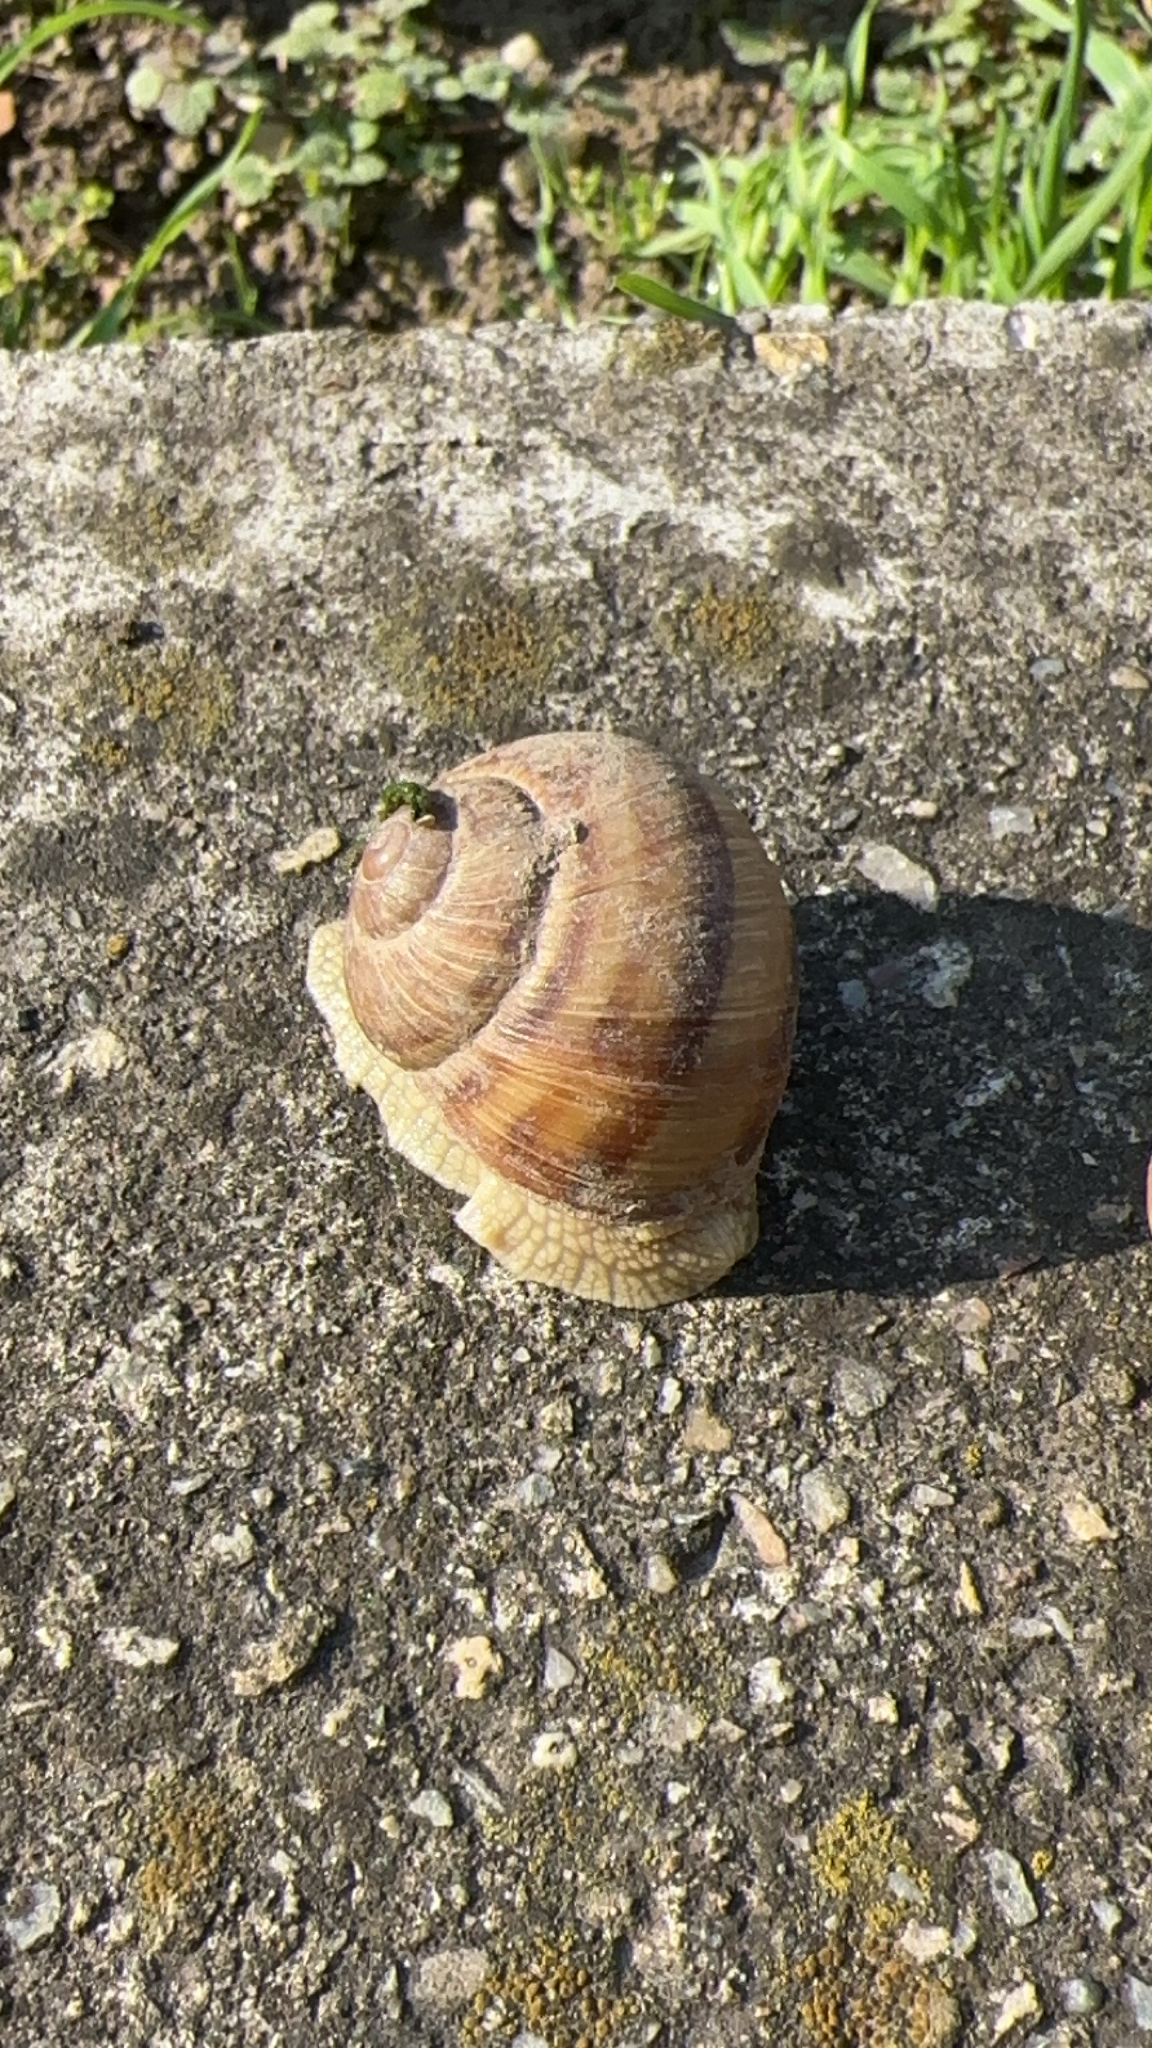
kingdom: Animalia
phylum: Mollusca
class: Gastropoda
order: Stylommatophora
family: Helicidae
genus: Helix
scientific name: Helix pomatia
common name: Roman snail
